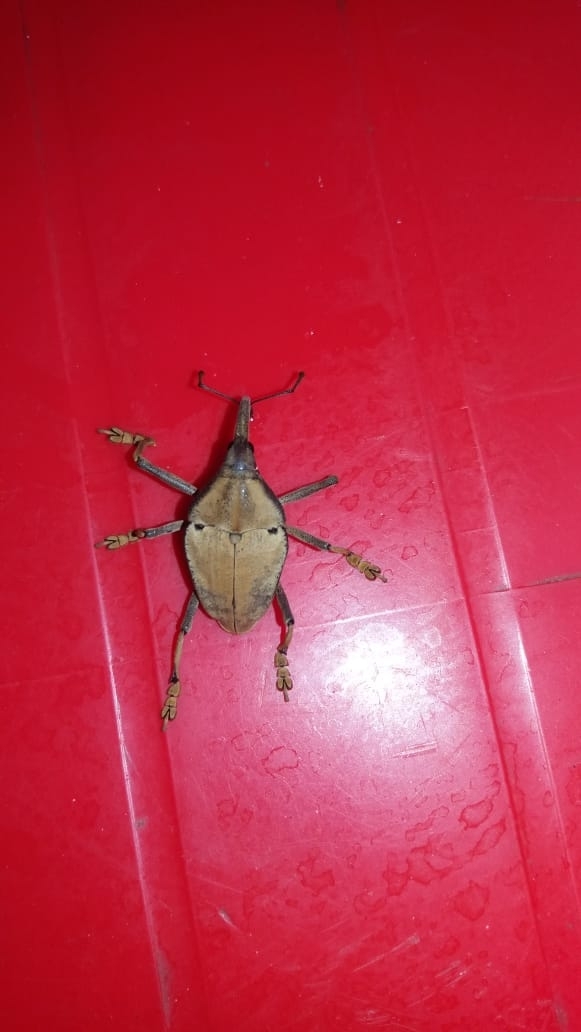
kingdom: Animalia
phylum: Arthropoda
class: Insecta
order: Coleoptera
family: Curculionidae
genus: Rhinastus
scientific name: Rhinastus sternicornis
